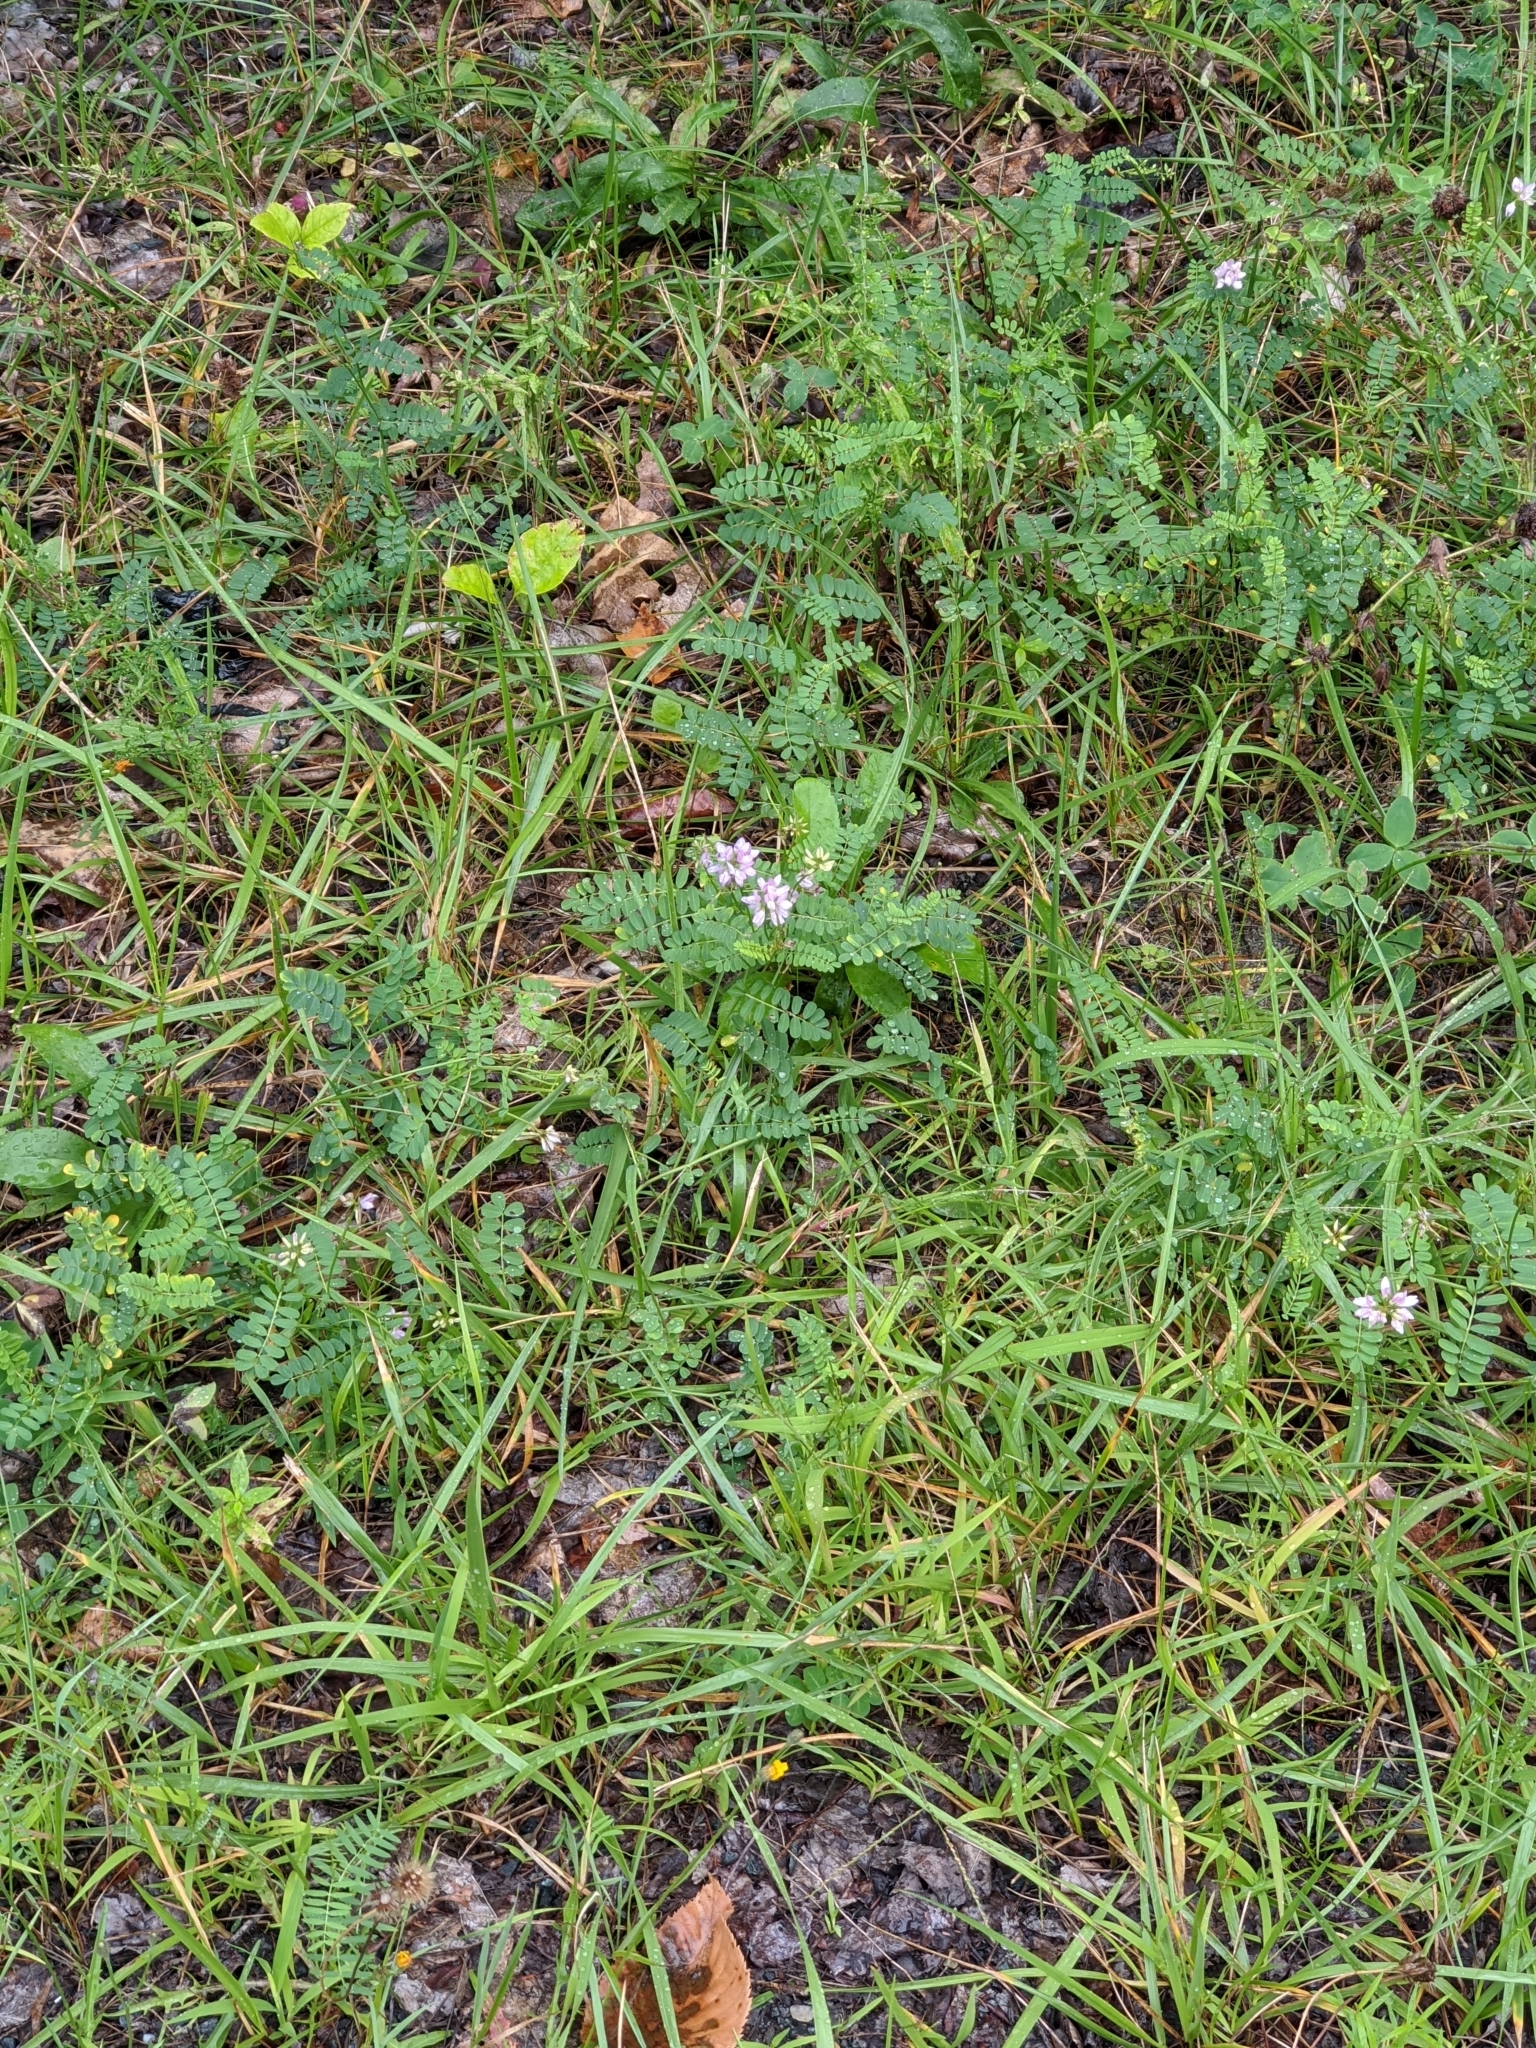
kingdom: Plantae
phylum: Tracheophyta
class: Magnoliopsida
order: Fabales
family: Fabaceae
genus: Coronilla
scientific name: Coronilla varia
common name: Crownvetch
